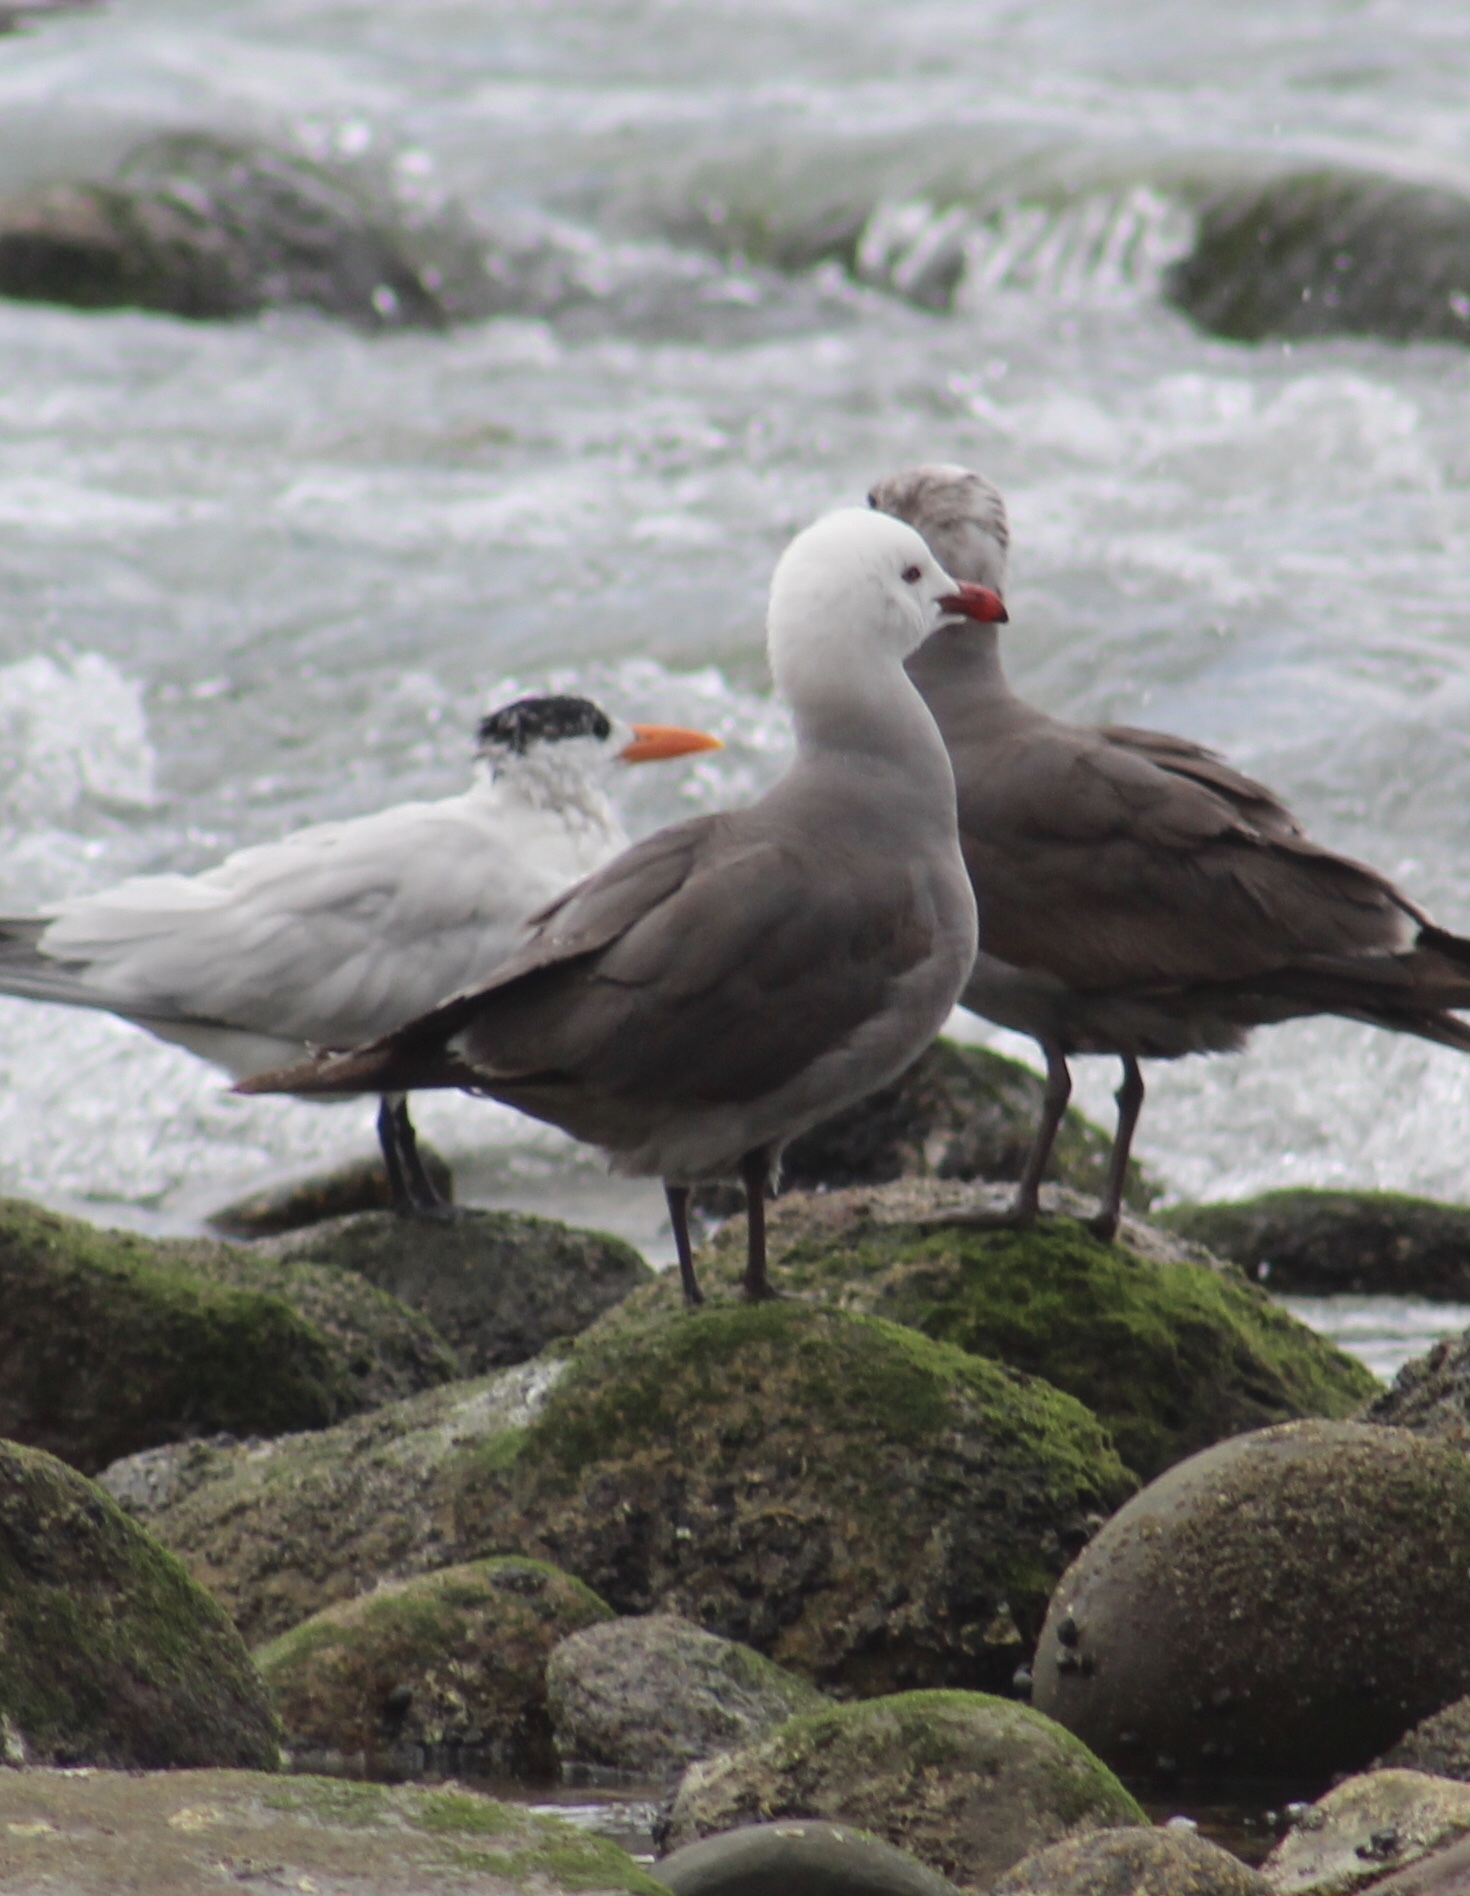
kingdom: Animalia
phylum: Chordata
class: Aves
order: Charadriiformes
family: Laridae
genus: Larus
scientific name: Larus heermanni
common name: Heermann's gull
